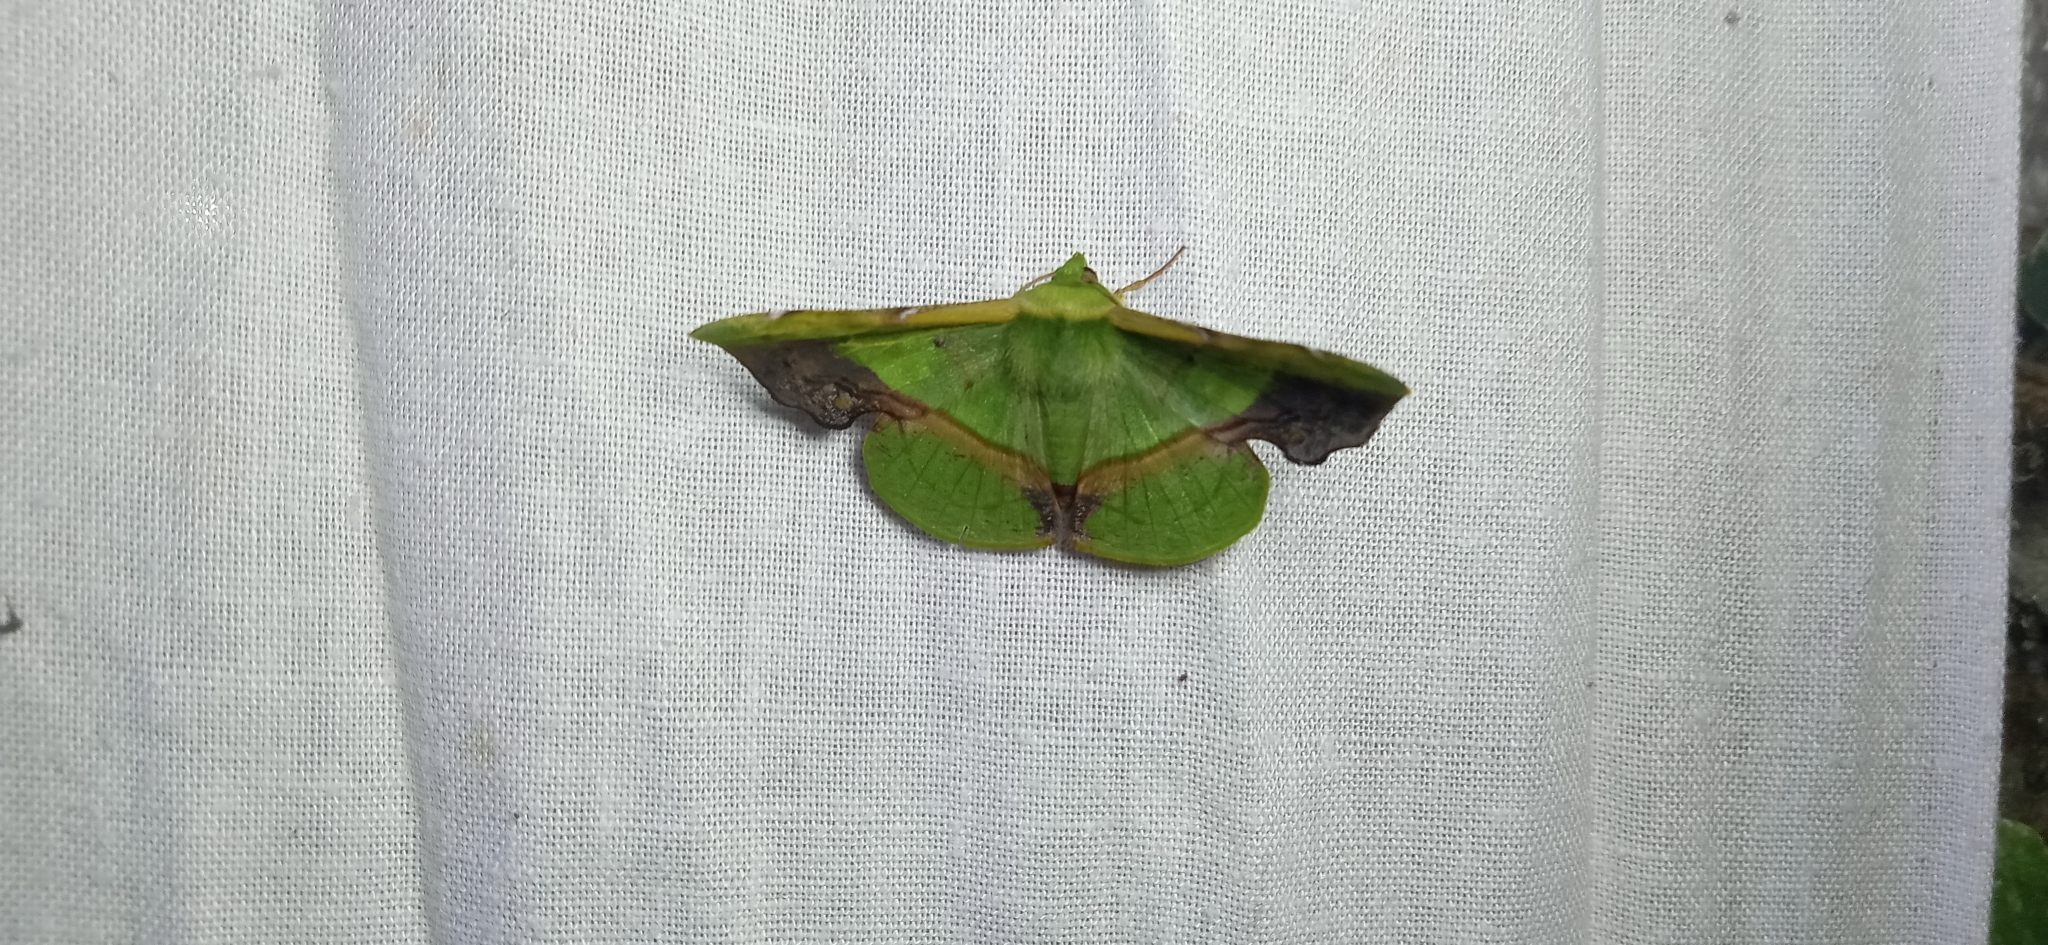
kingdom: Animalia
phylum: Arthropoda
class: Insecta
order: Lepidoptera
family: Geometridae
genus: Fascellina
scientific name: Fascellina plagiata
